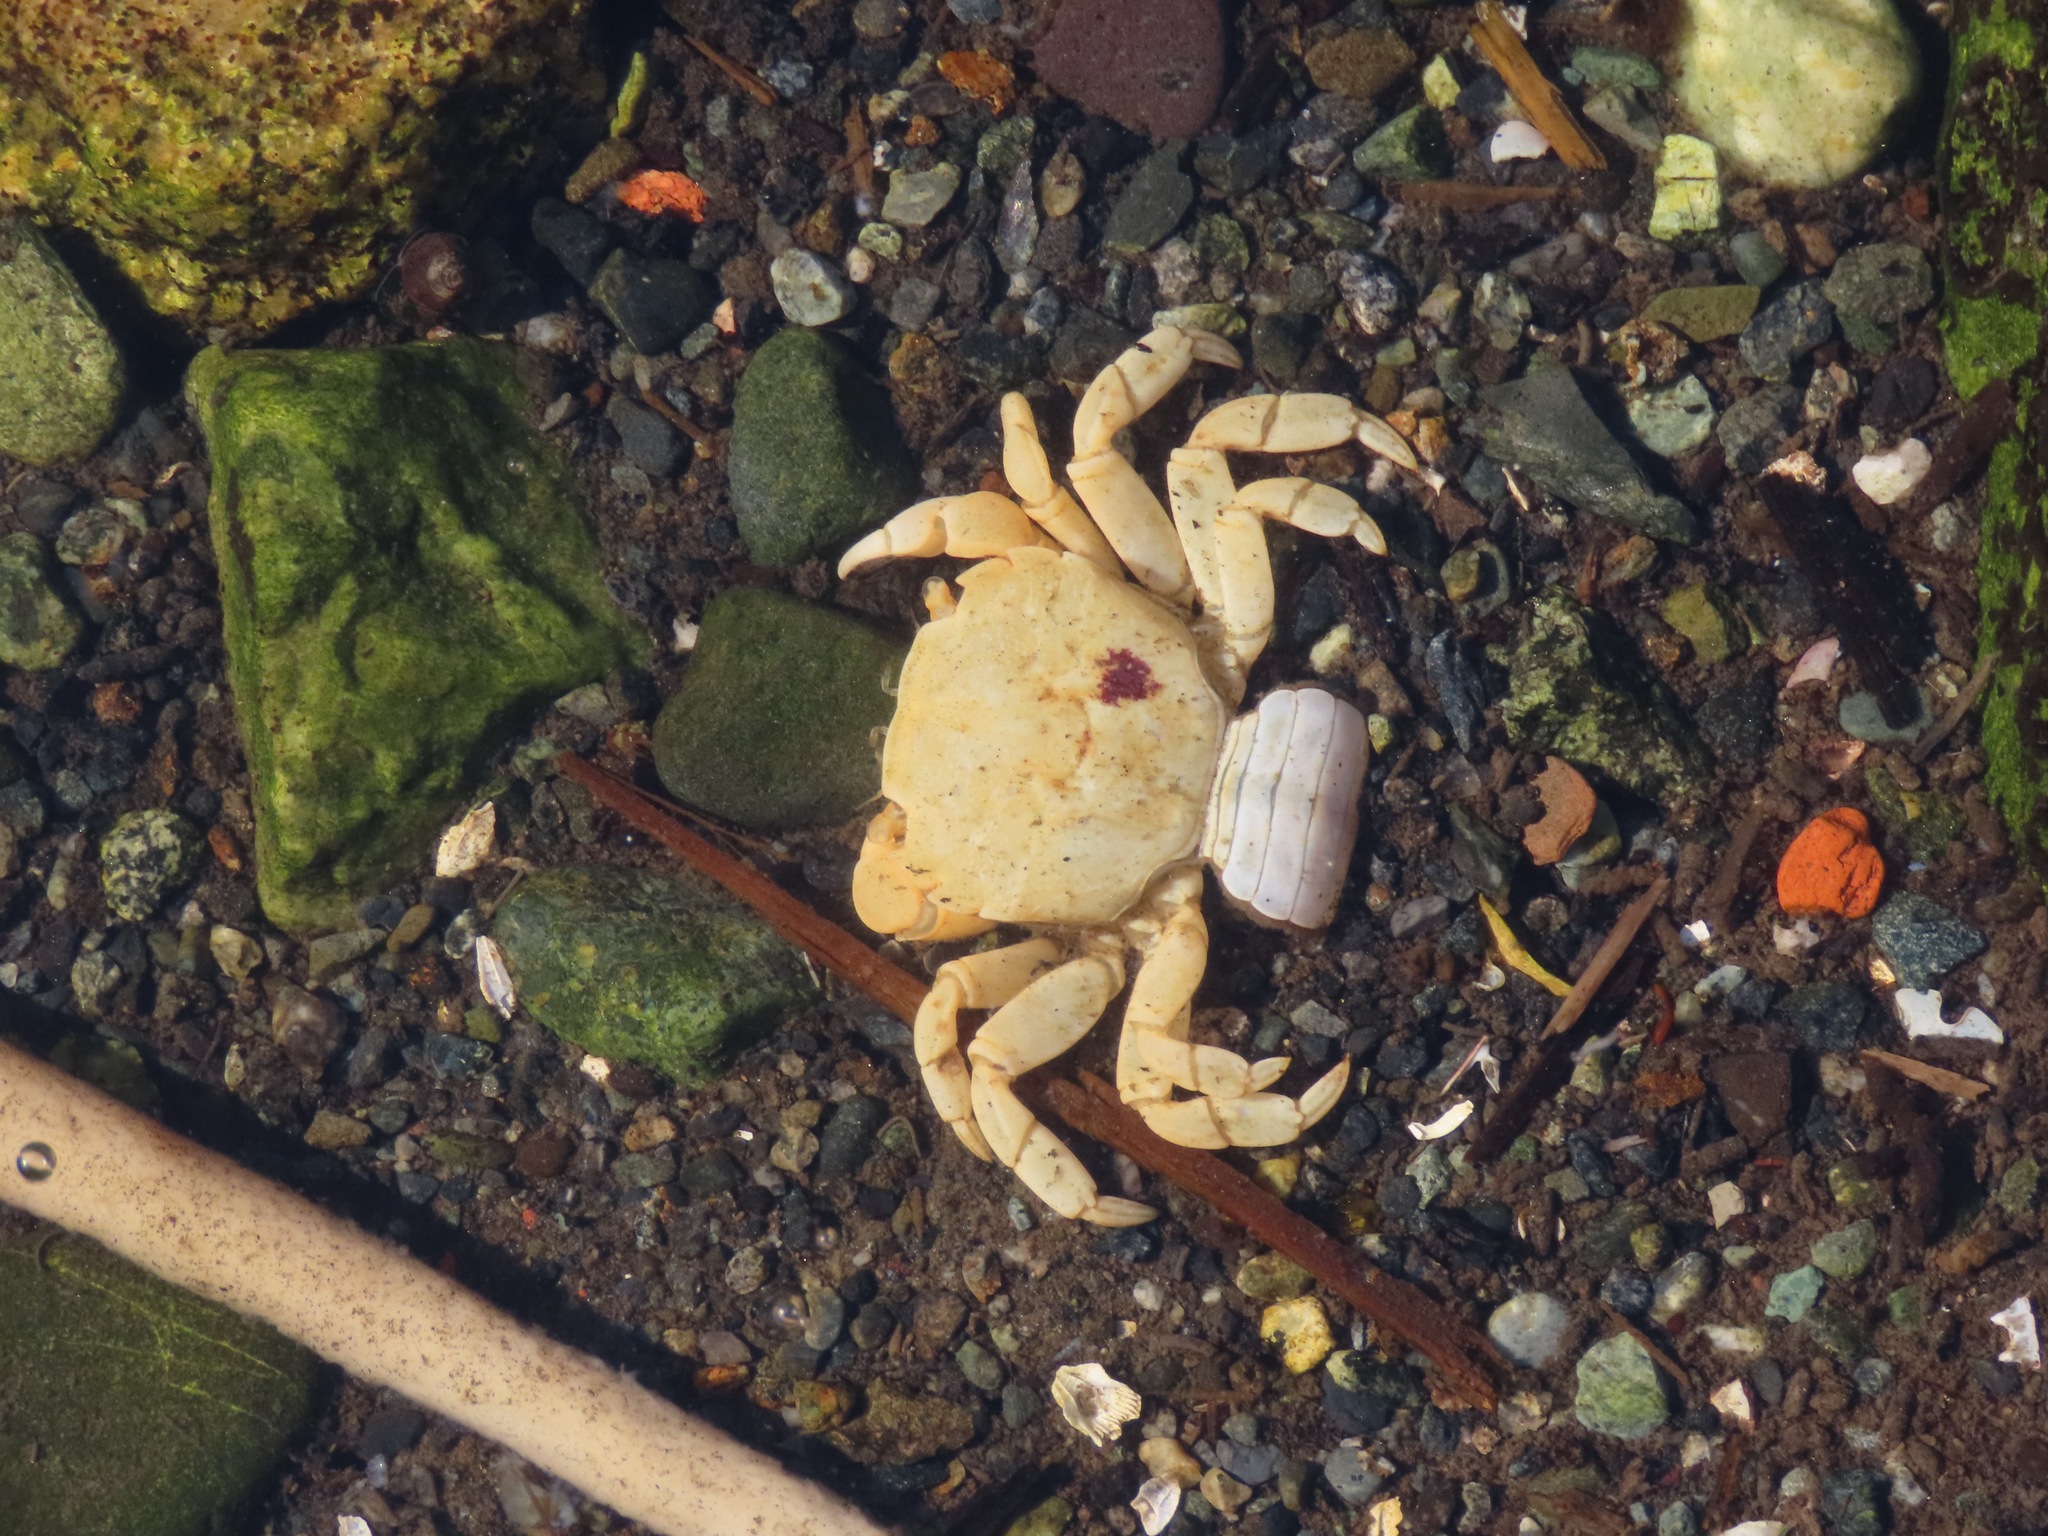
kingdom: Animalia
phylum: Arthropoda
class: Malacostraca
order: Decapoda
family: Varunidae
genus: Hemigrapsus
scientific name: Hemigrapsus nudus
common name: Purple shore crab
